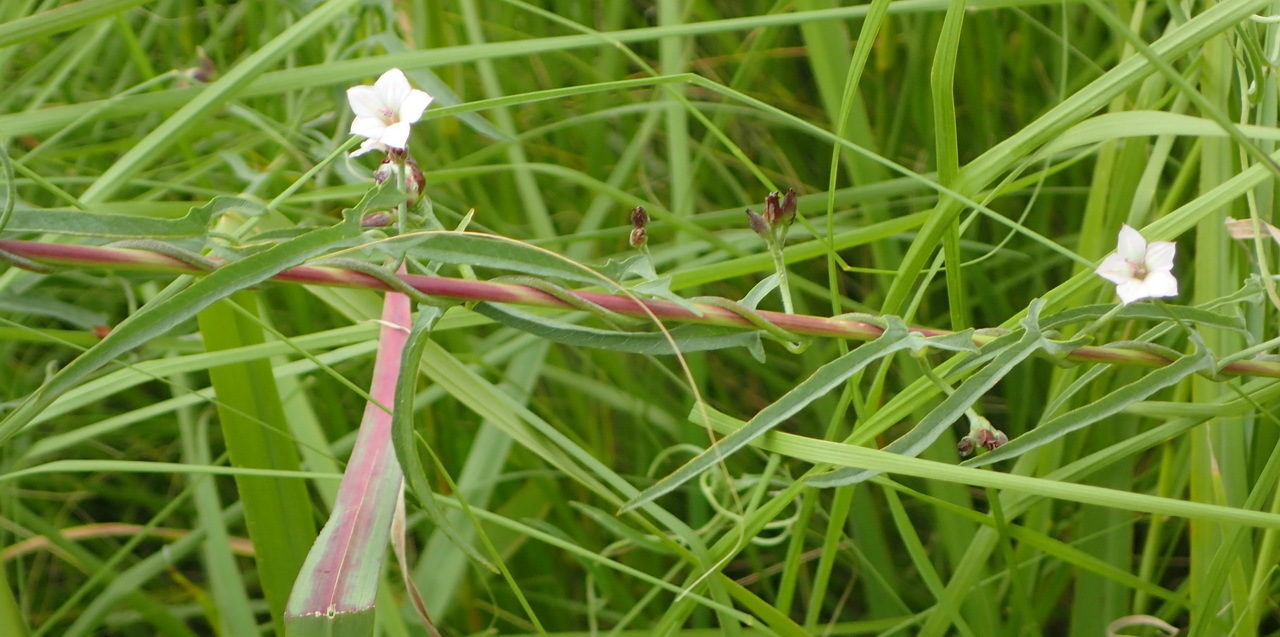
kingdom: Plantae
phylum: Tracheophyta
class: Magnoliopsida
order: Solanales
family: Convolvulaceae
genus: Convolvulus
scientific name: Convolvulus aschersonii
